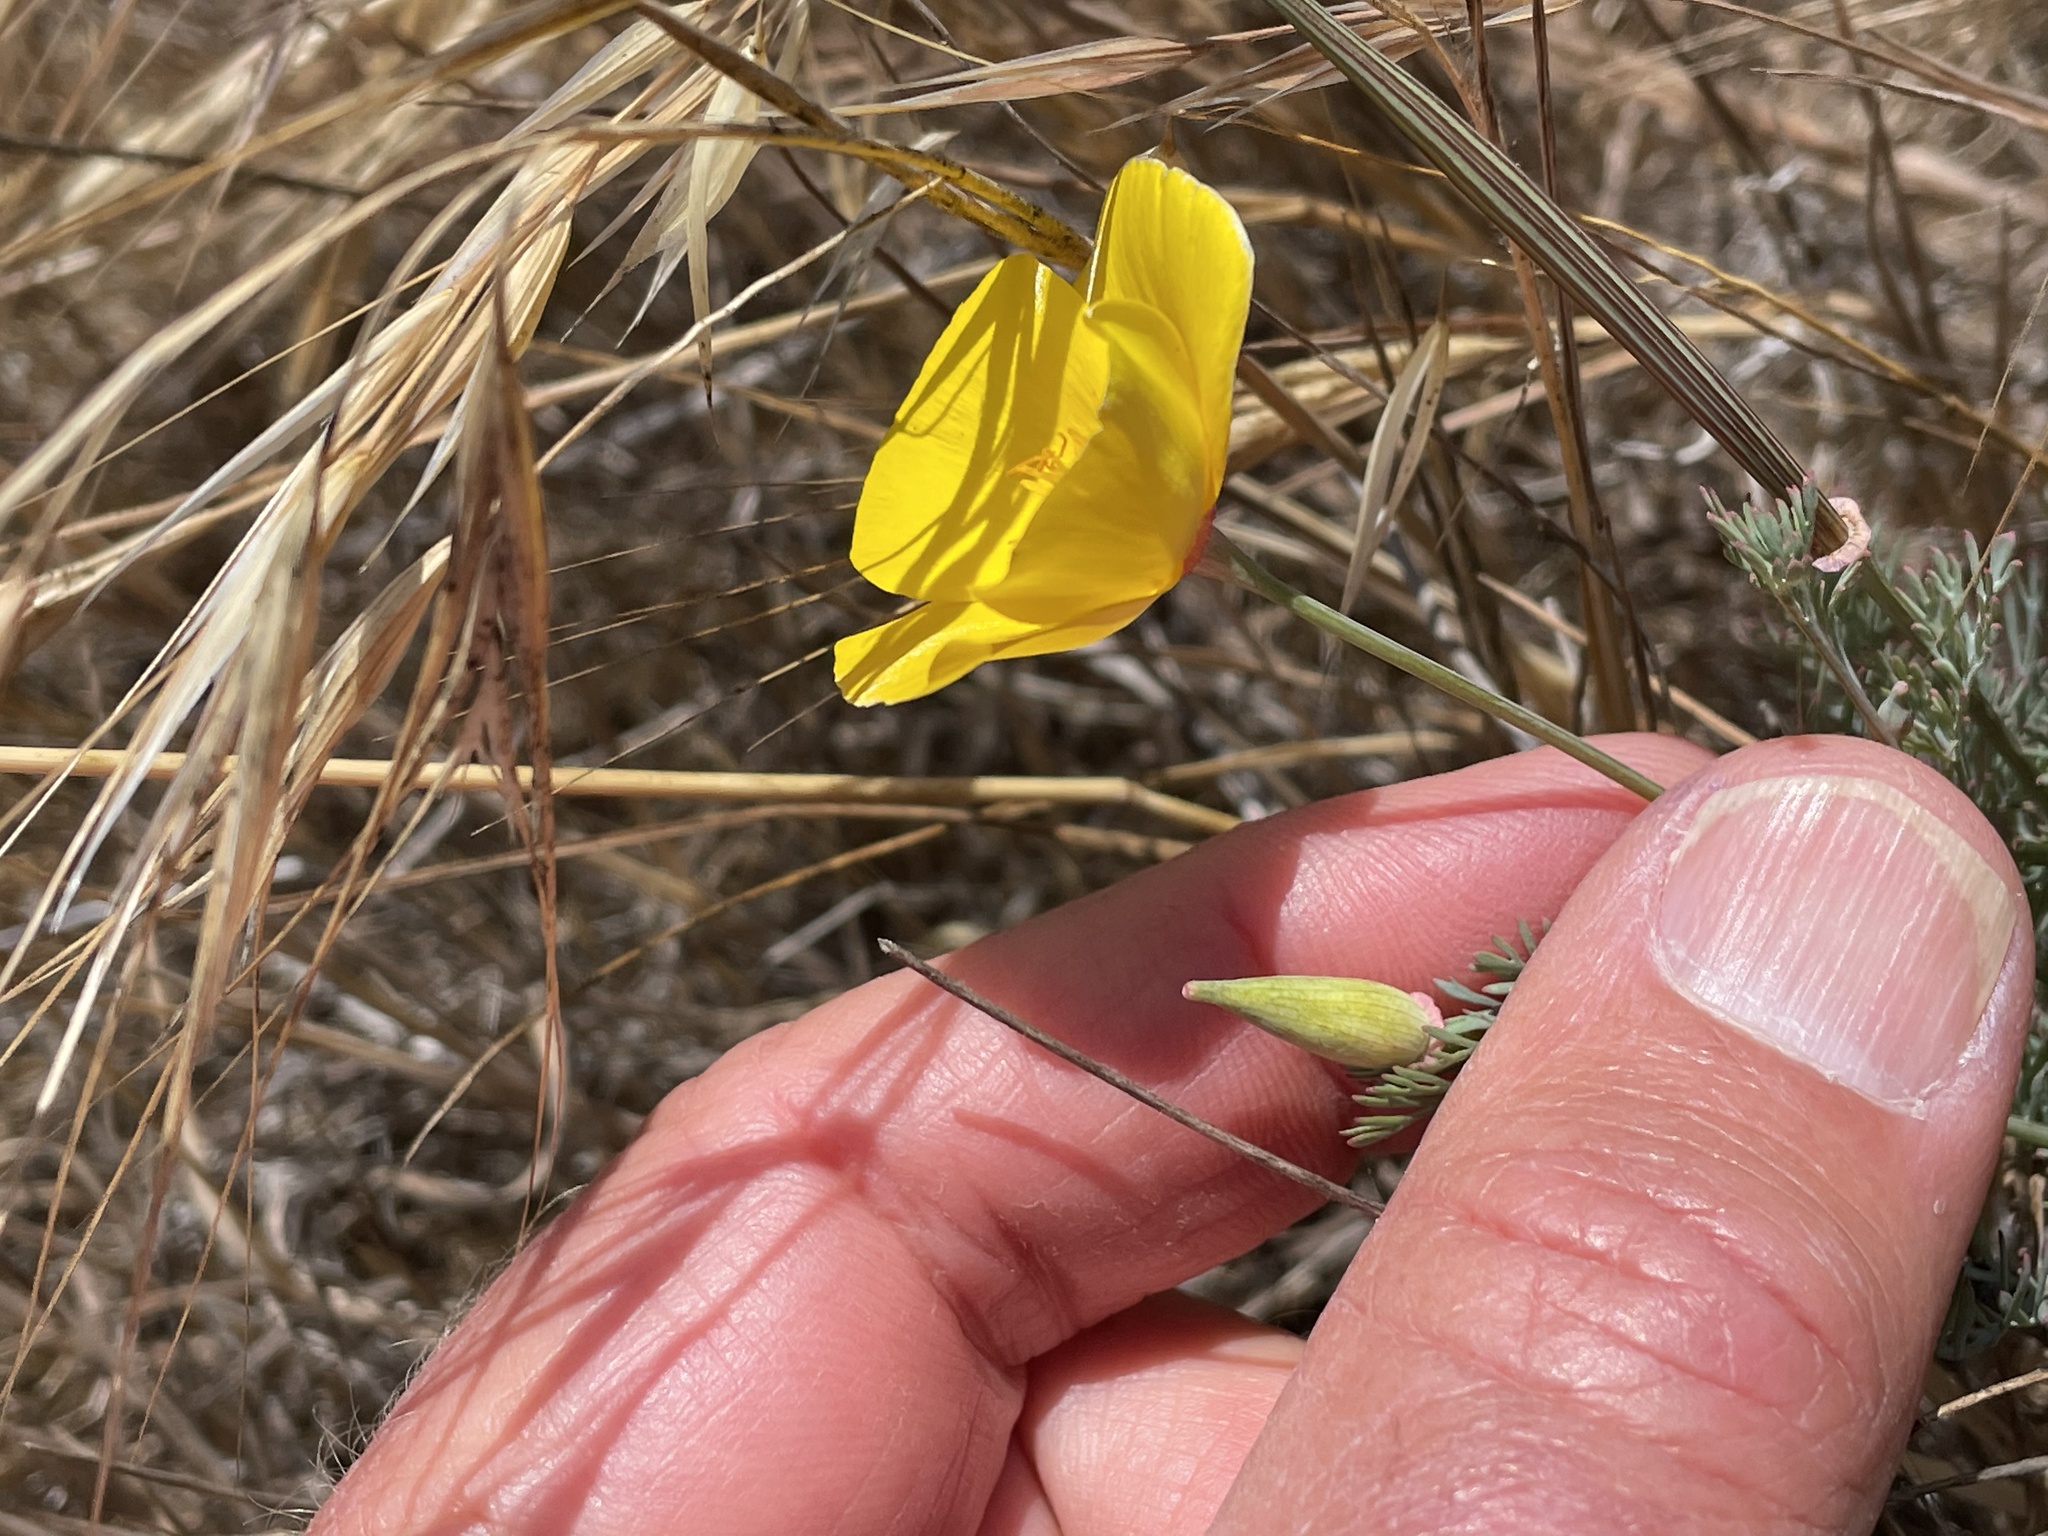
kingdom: Plantae
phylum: Tracheophyta
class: Magnoliopsida
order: Ranunculales
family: Papaveraceae
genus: Eschscholzia
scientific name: Eschscholzia californica
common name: California poppy
